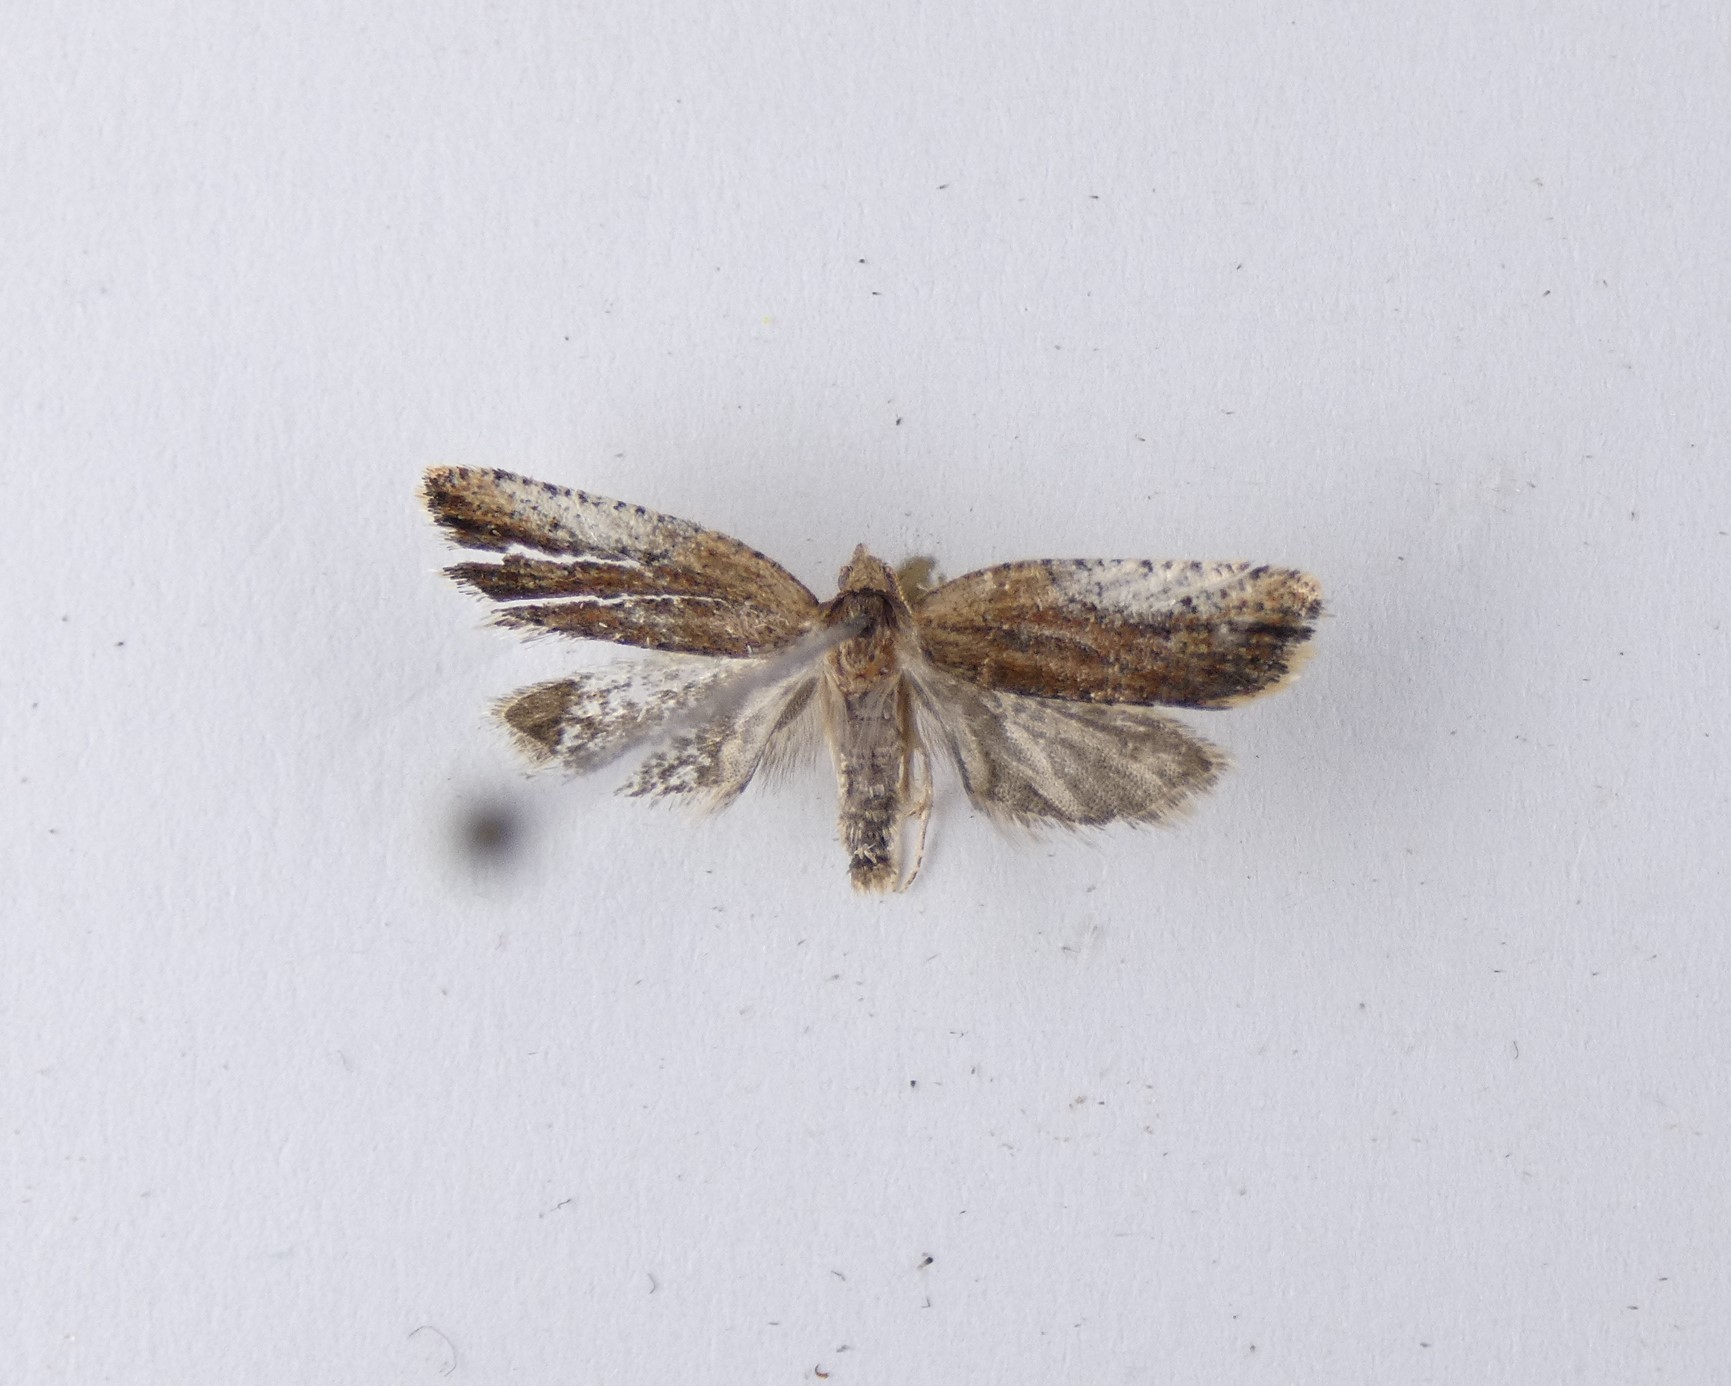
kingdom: Animalia
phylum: Arthropoda
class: Insecta
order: Lepidoptera
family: Tortricidae
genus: Capua
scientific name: Capua semiferana
